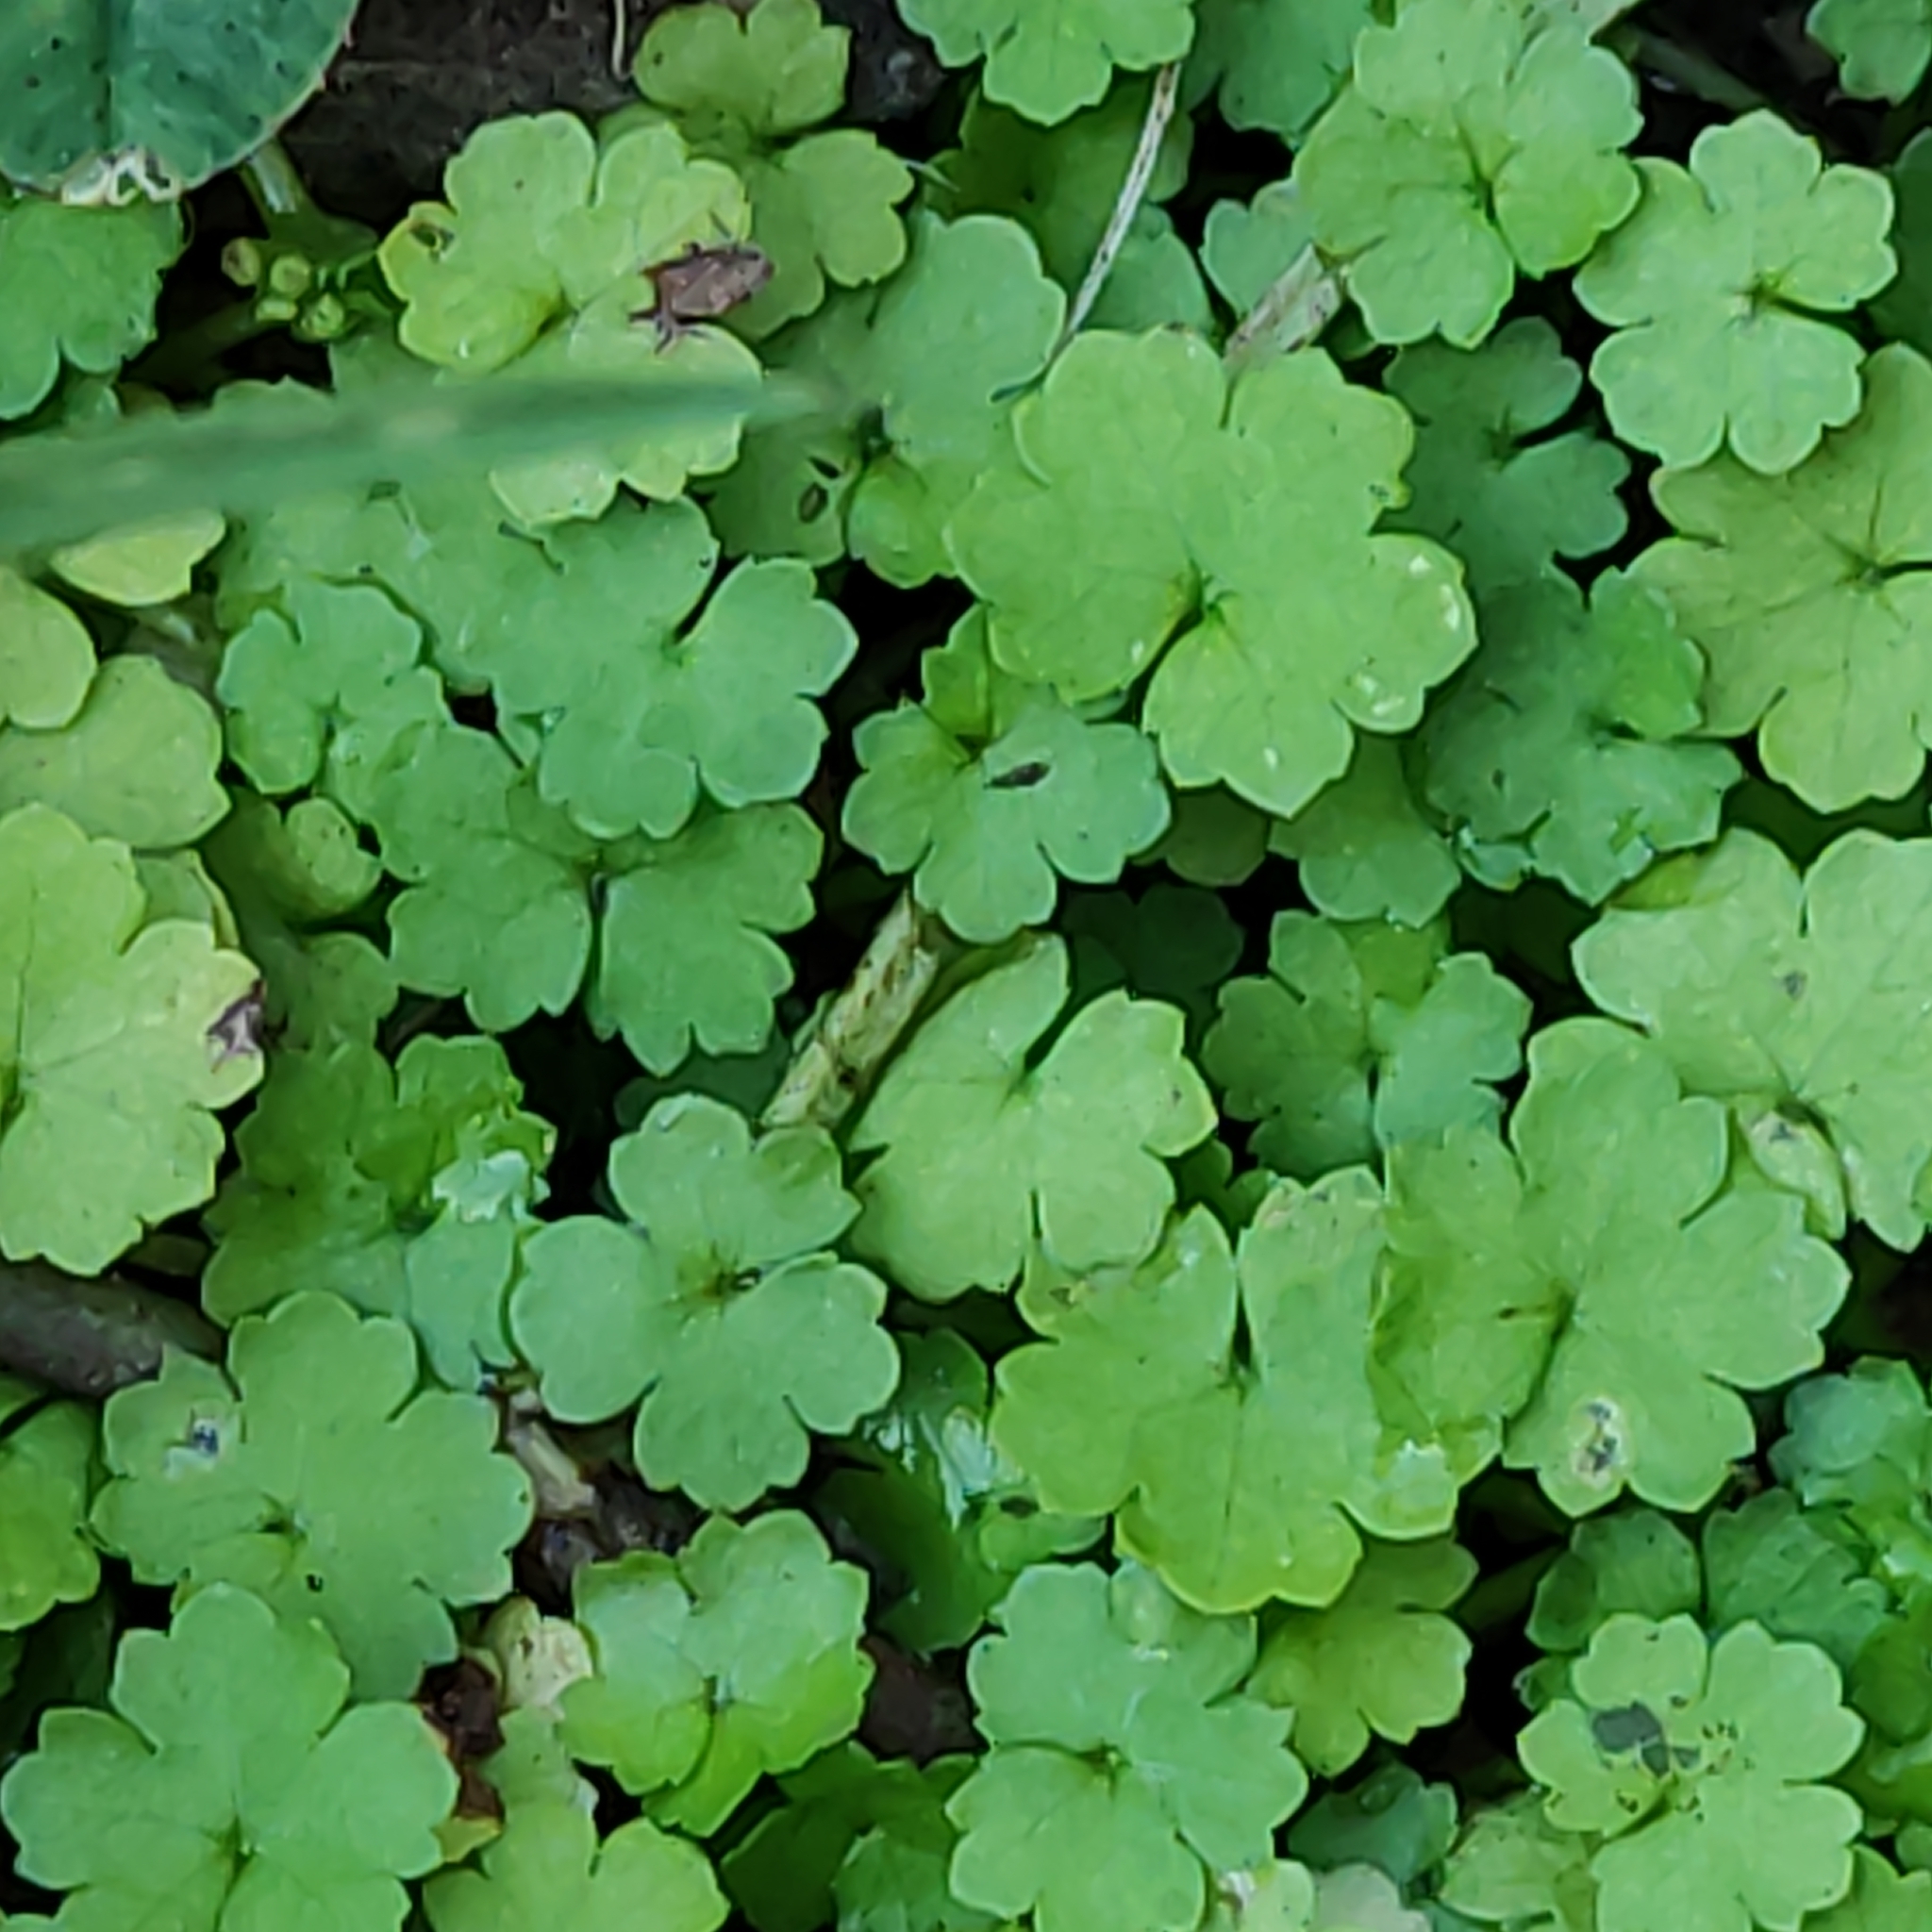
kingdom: Plantae
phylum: Tracheophyta
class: Magnoliopsida
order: Apiales
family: Araliaceae
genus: Hydrocotyle
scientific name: Hydrocotyle heteromeria
